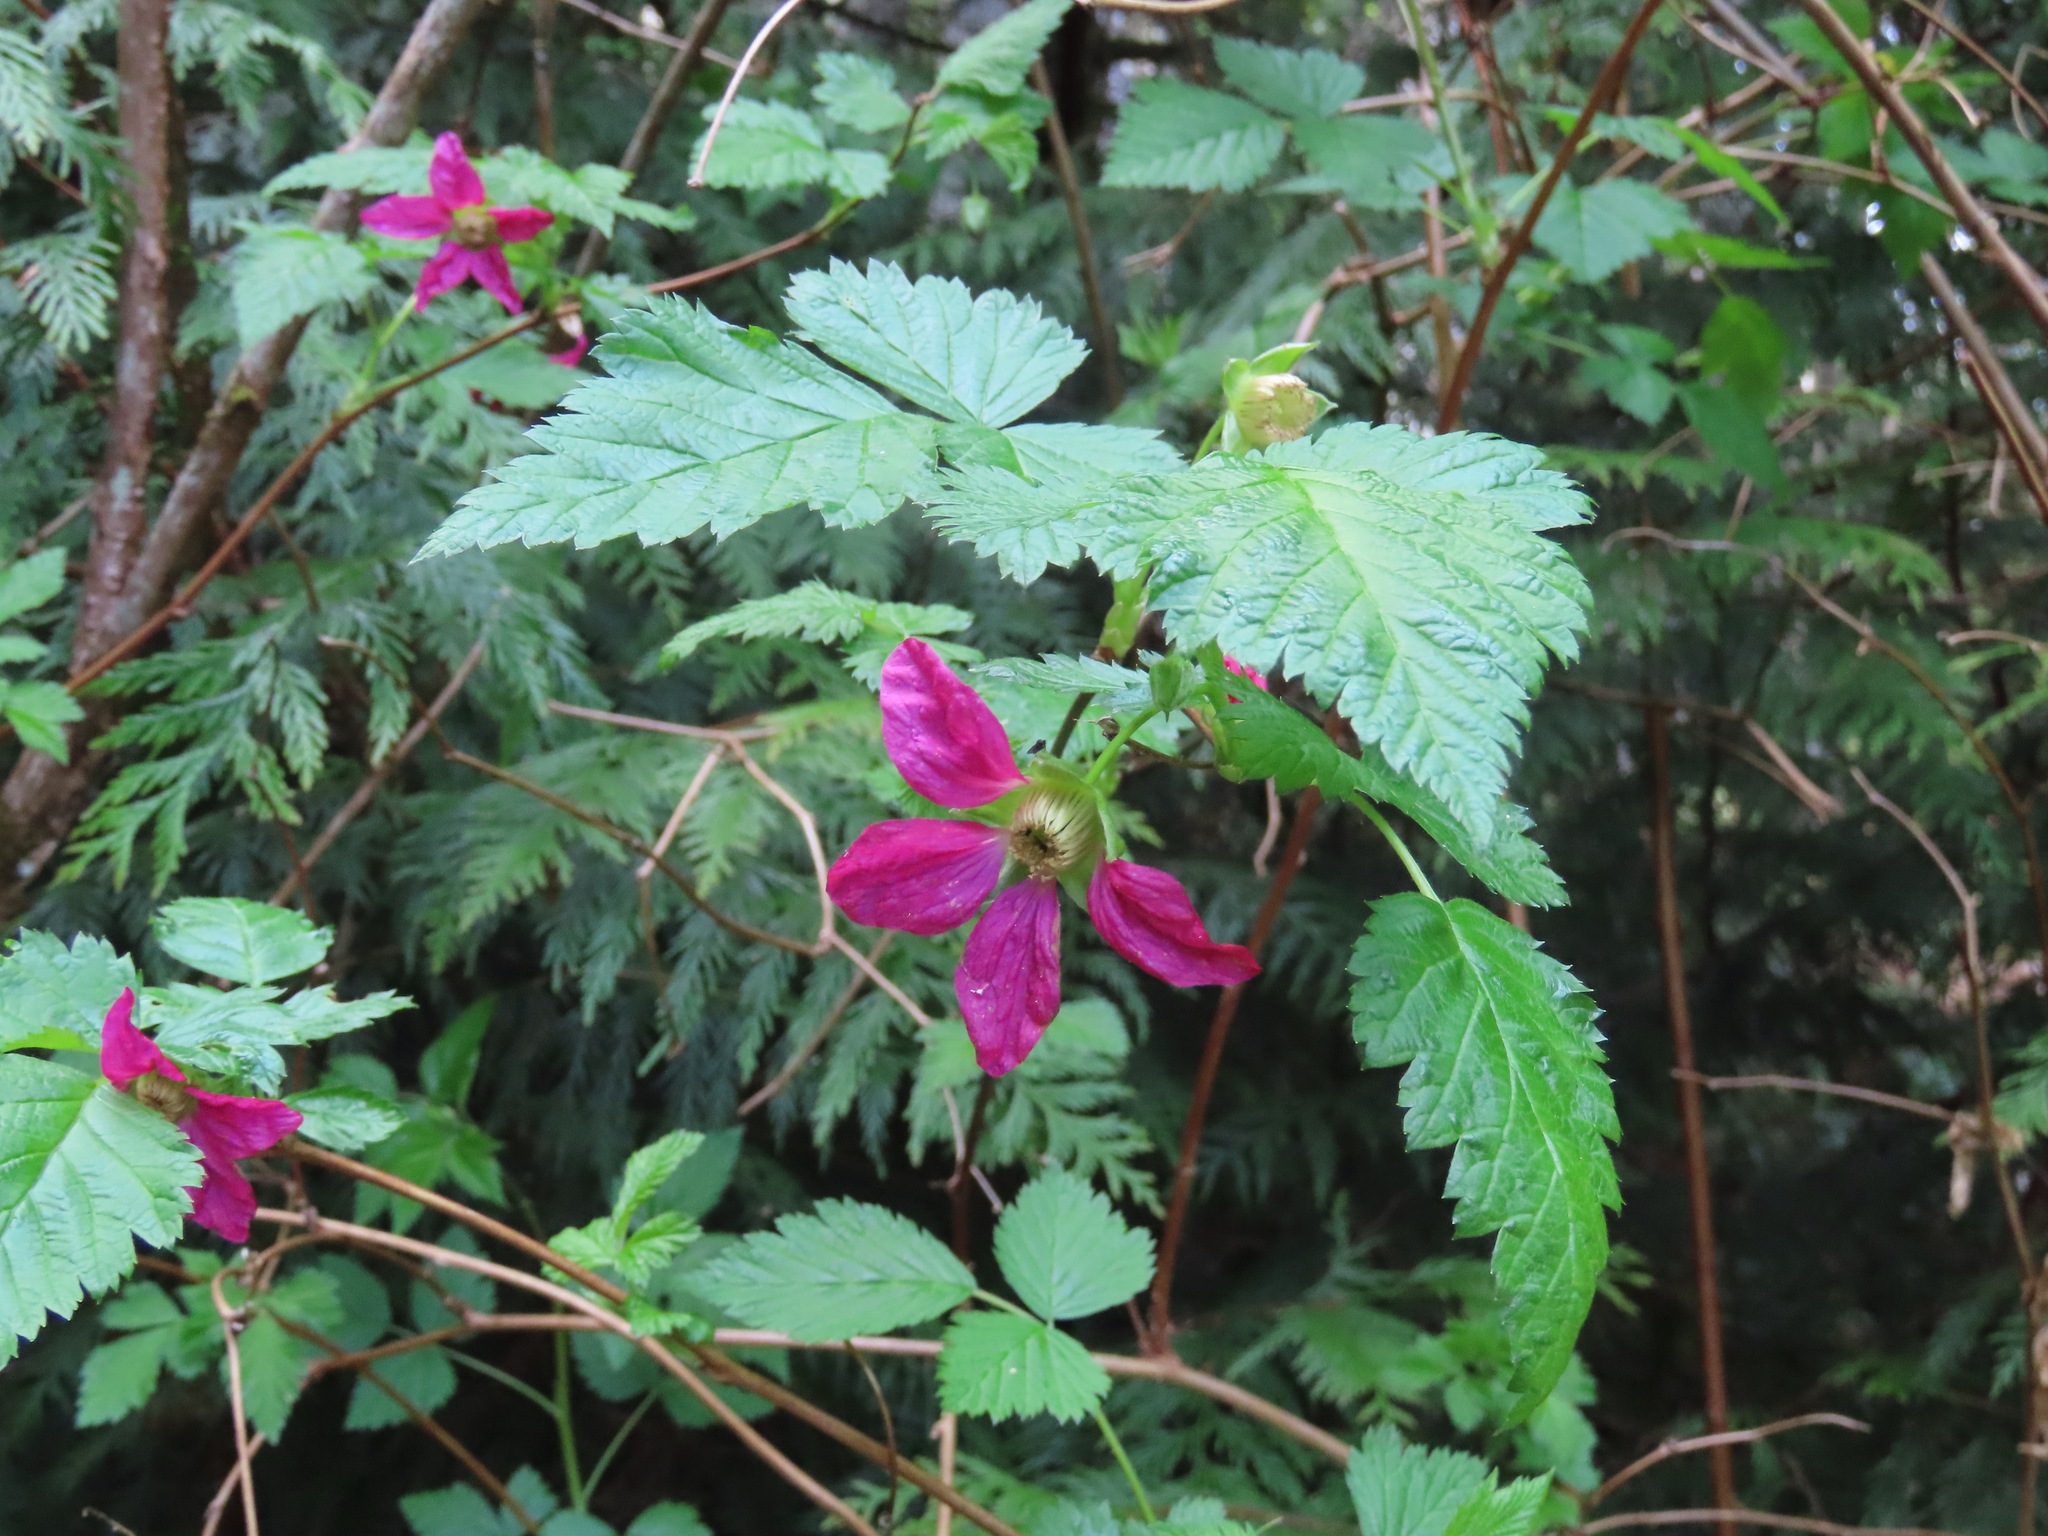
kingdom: Plantae
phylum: Tracheophyta
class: Magnoliopsida
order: Rosales
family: Rosaceae
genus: Rubus
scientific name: Rubus spectabilis
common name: Salmonberry
